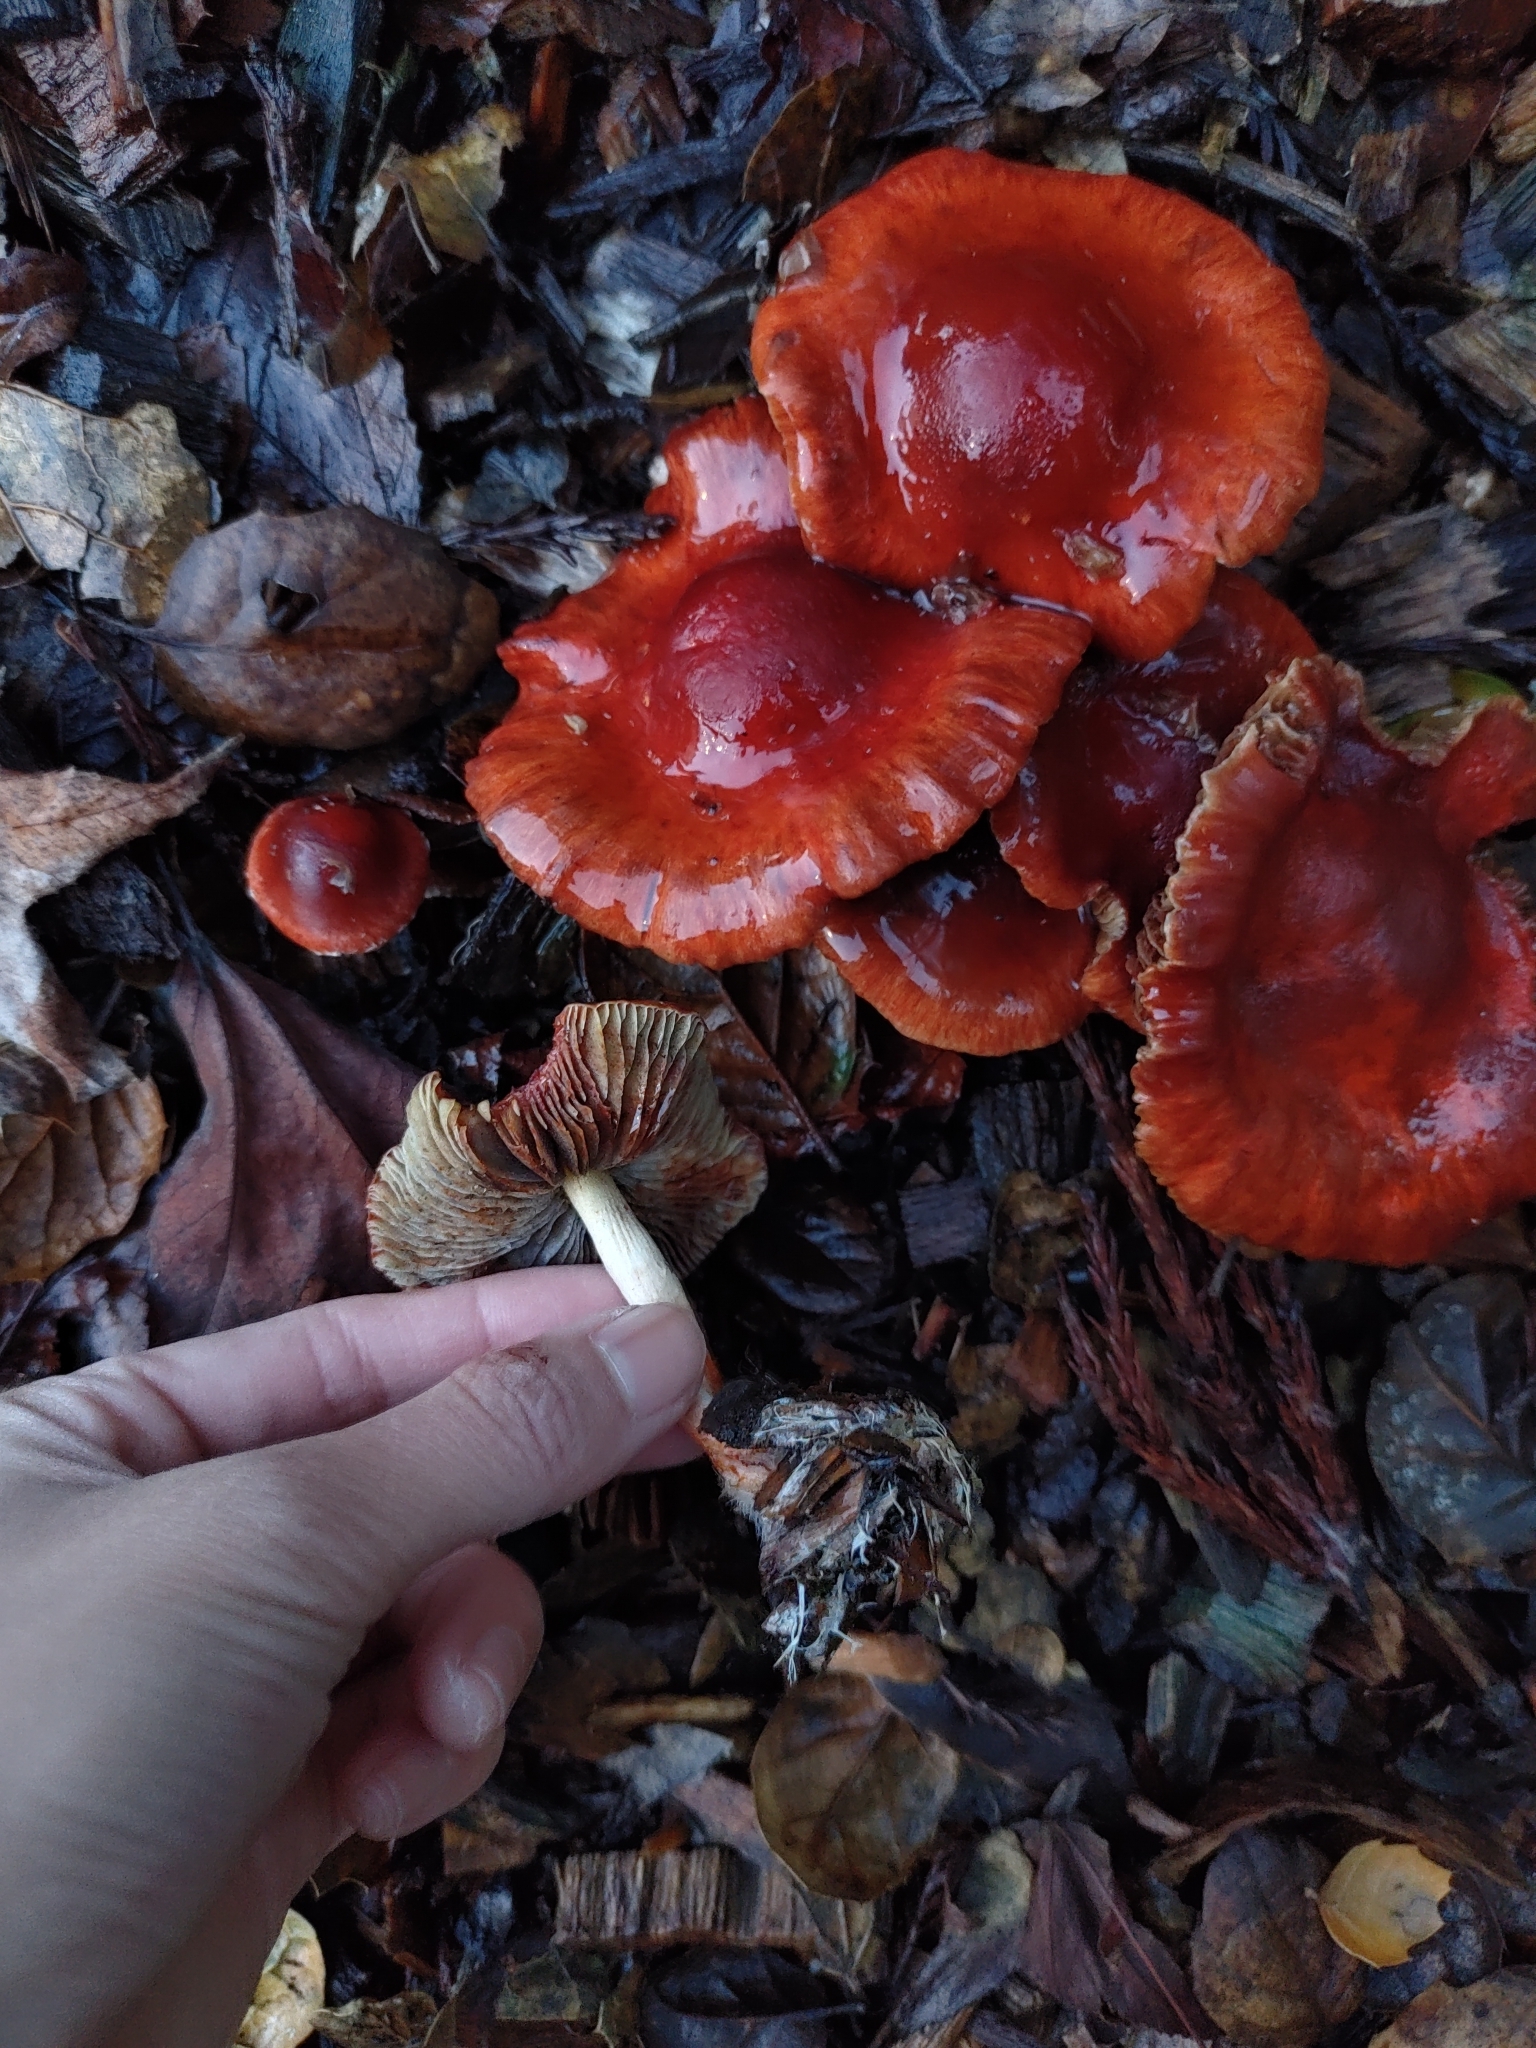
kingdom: Fungi
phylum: Basidiomycota
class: Agaricomycetes
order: Agaricales
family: Strophariaceae
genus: Leratiomyces
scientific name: Leratiomyces ceres
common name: Redlead roundhead
